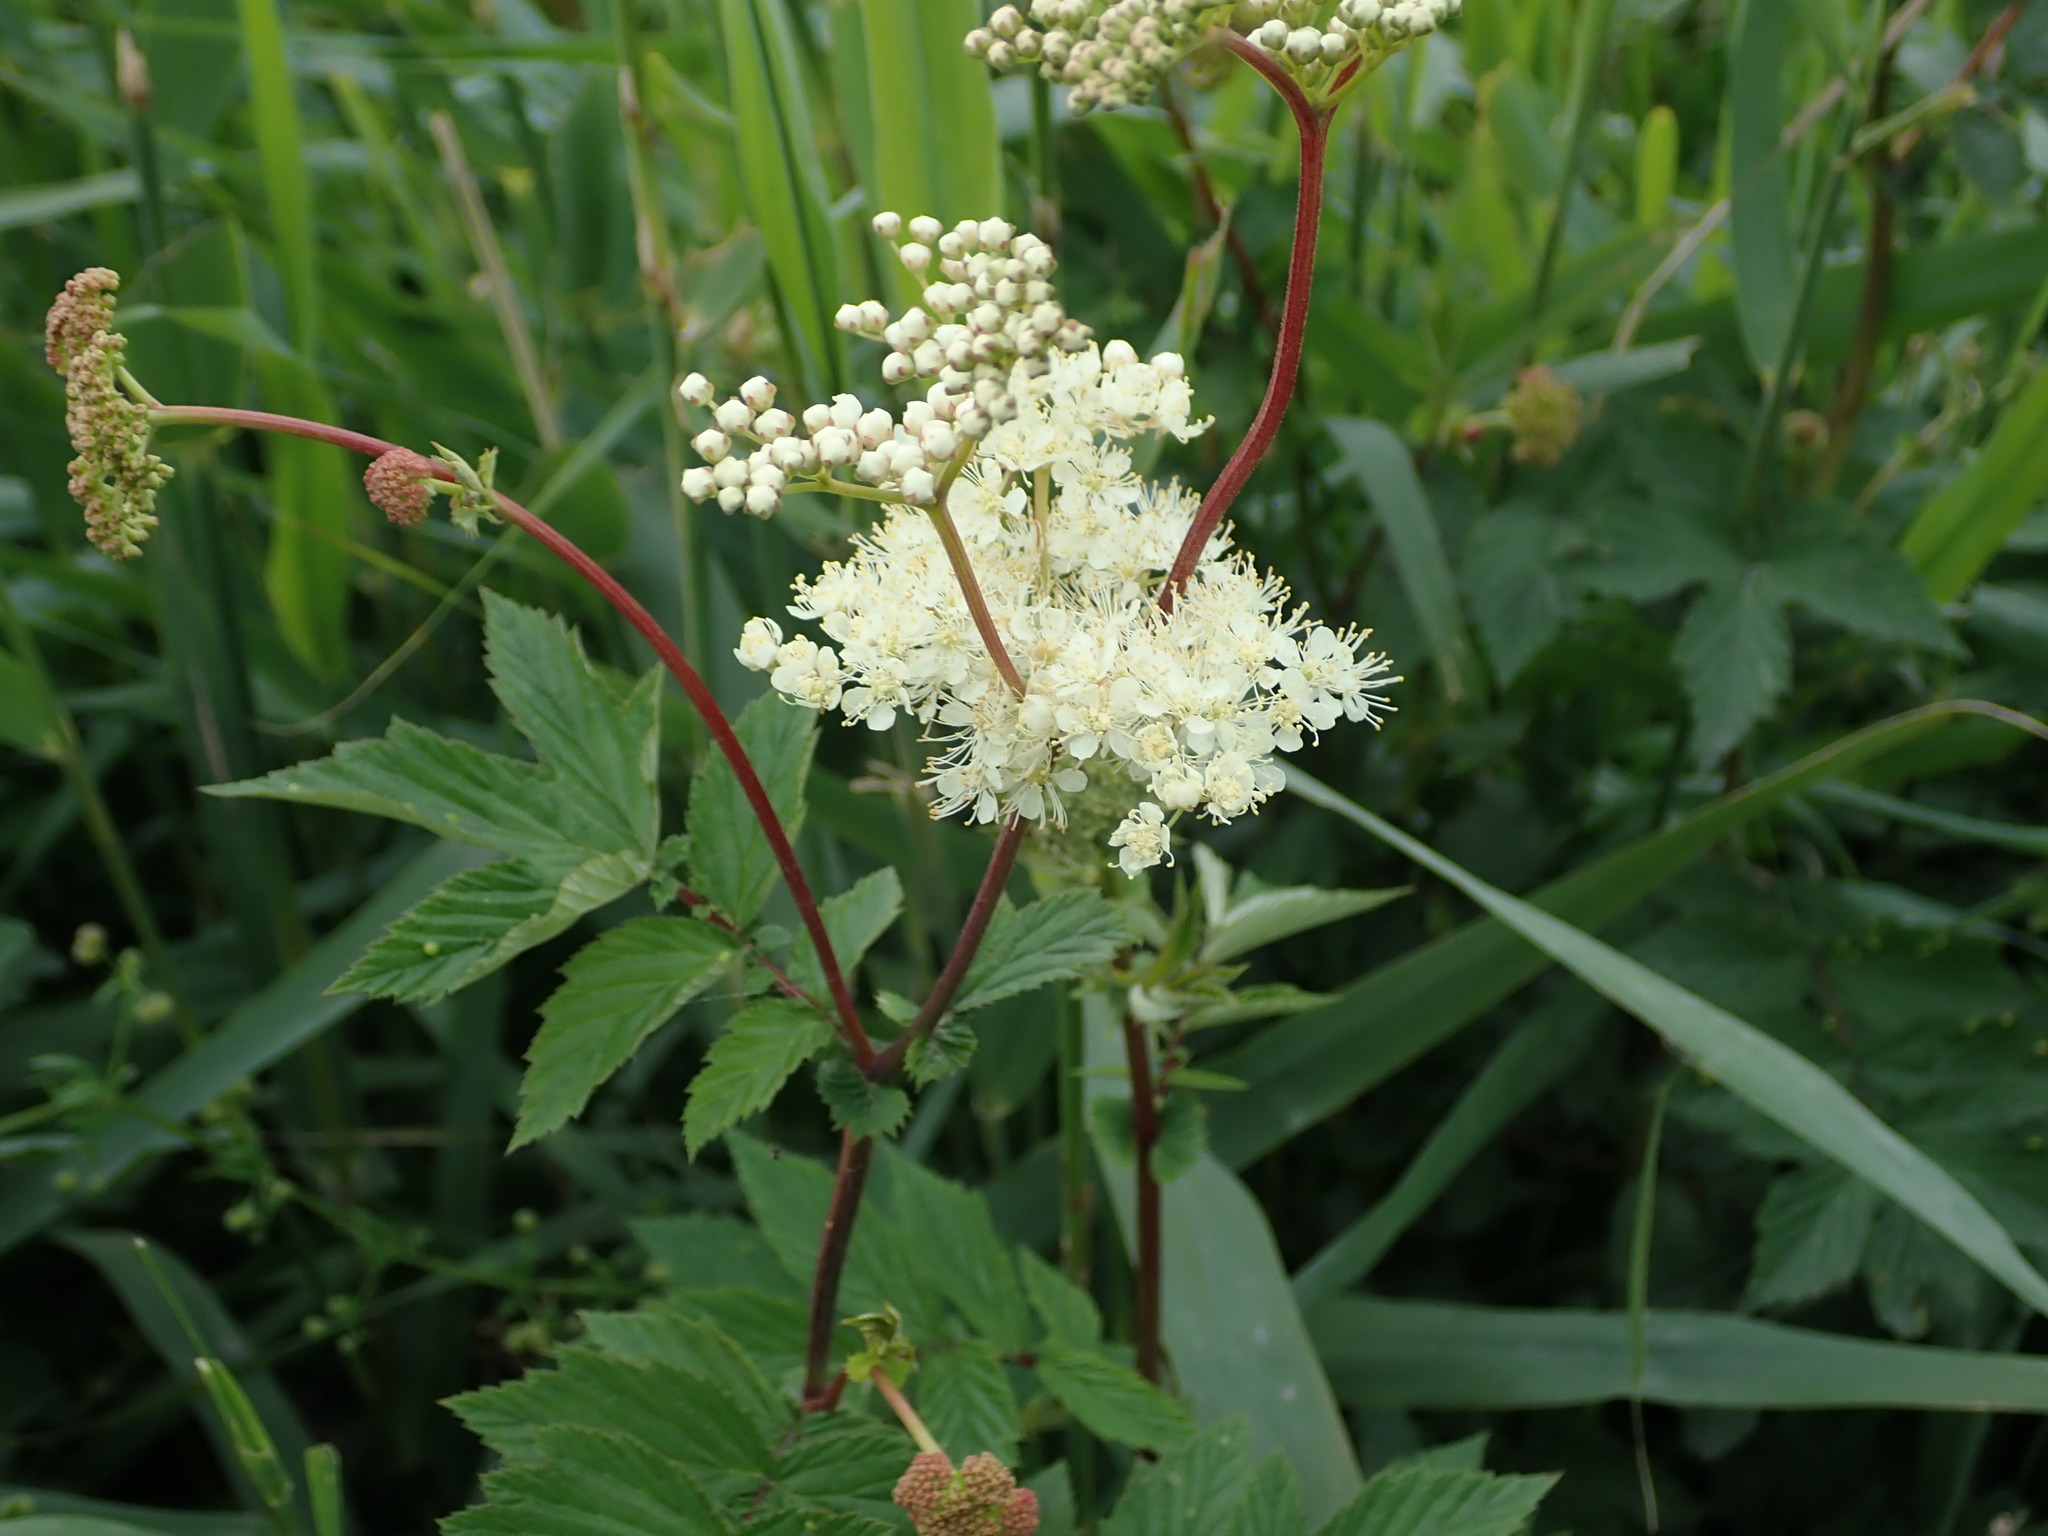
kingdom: Plantae
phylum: Tracheophyta
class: Magnoliopsida
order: Rosales
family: Rosaceae
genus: Filipendula
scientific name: Filipendula ulmaria
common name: Meadowsweet
